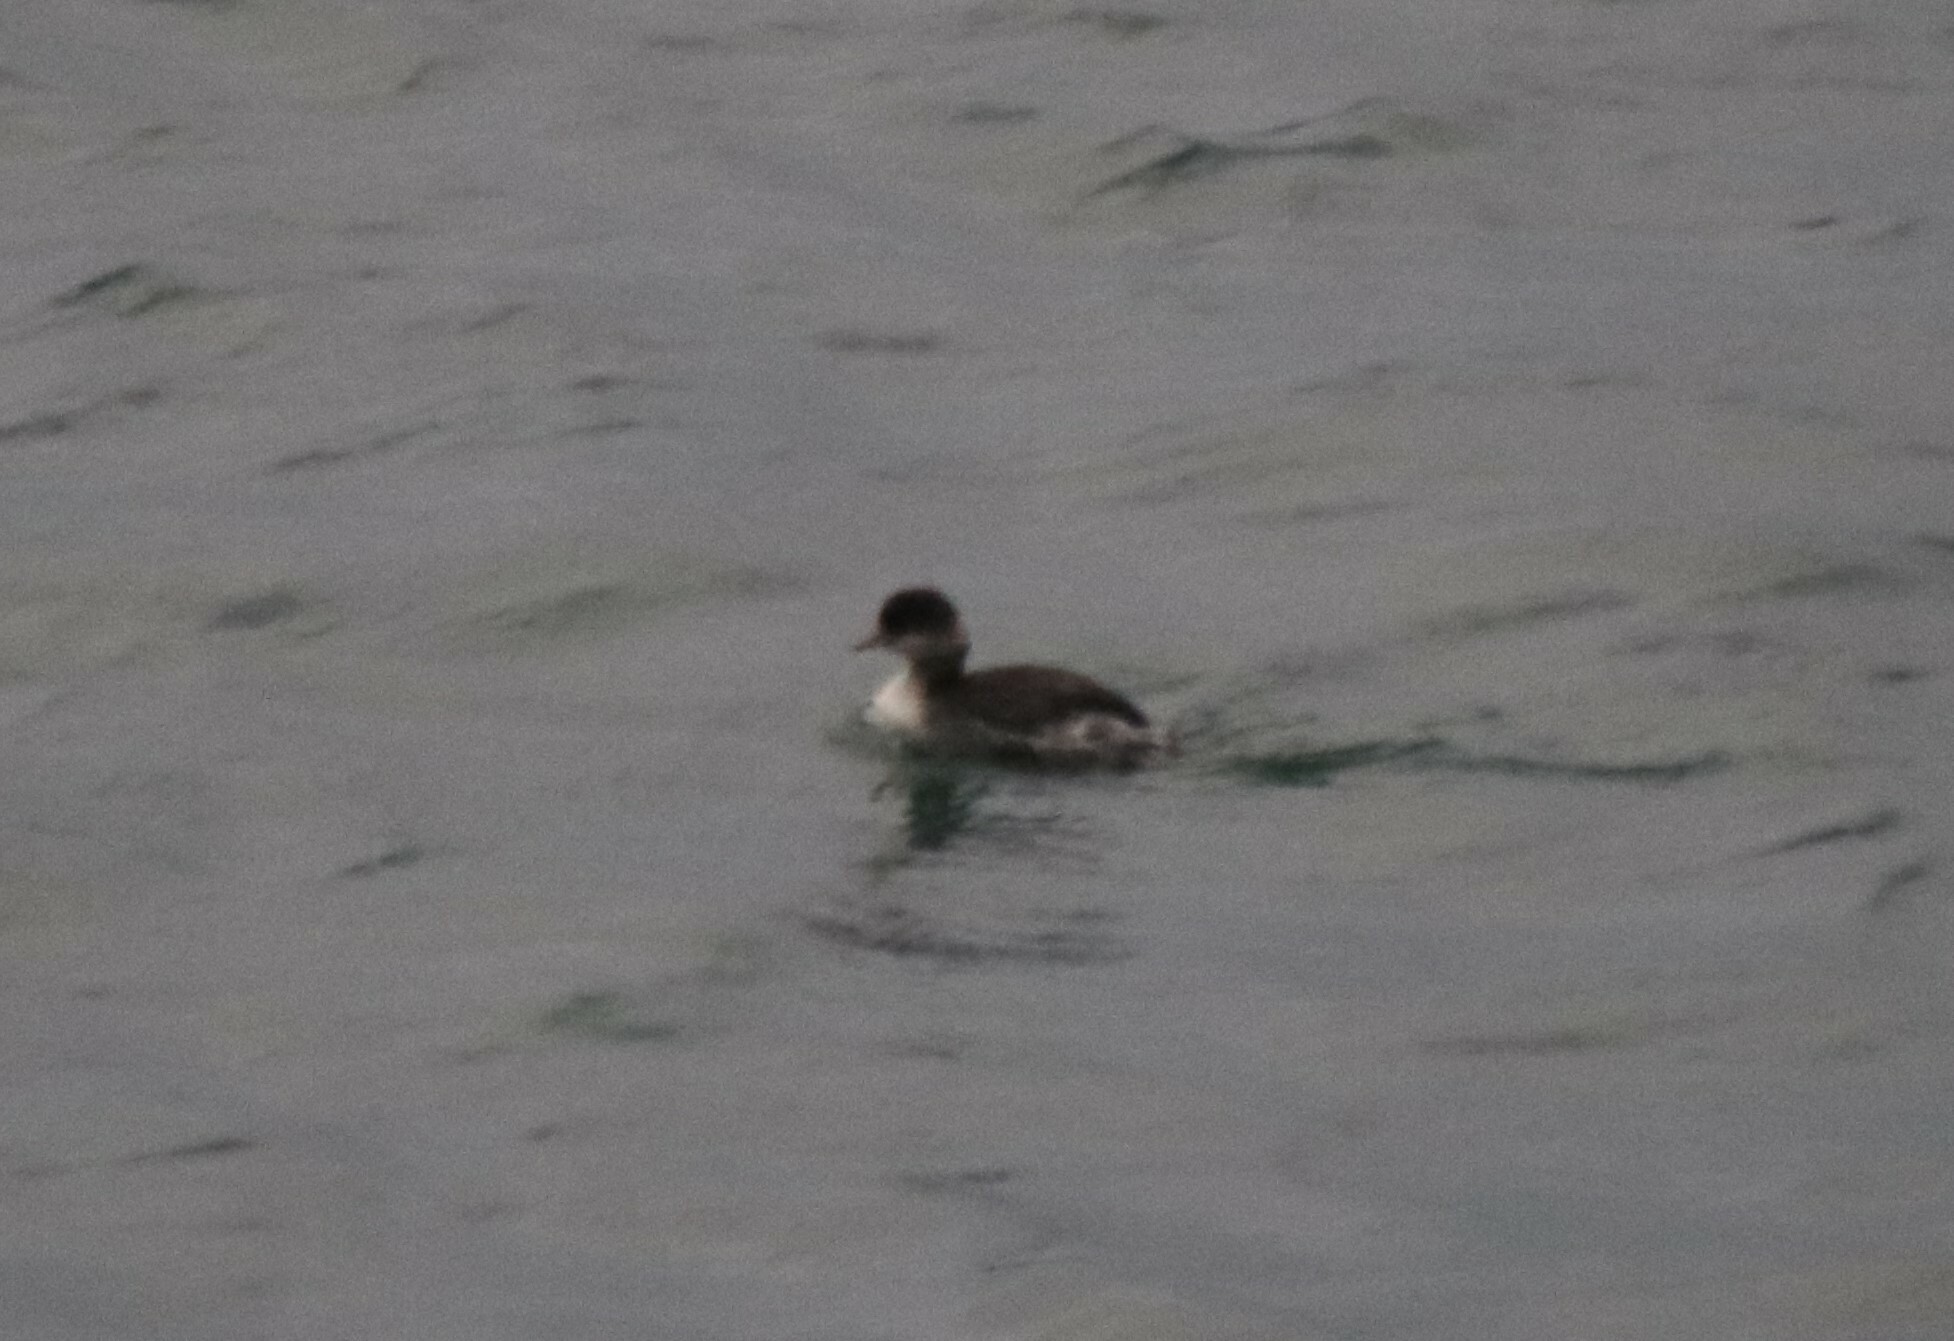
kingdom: Animalia
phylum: Chordata
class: Aves
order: Podicipediformes
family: Podicipedidae
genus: Podiceps
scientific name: Podiceps nigricollis
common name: Black-necked grebe
